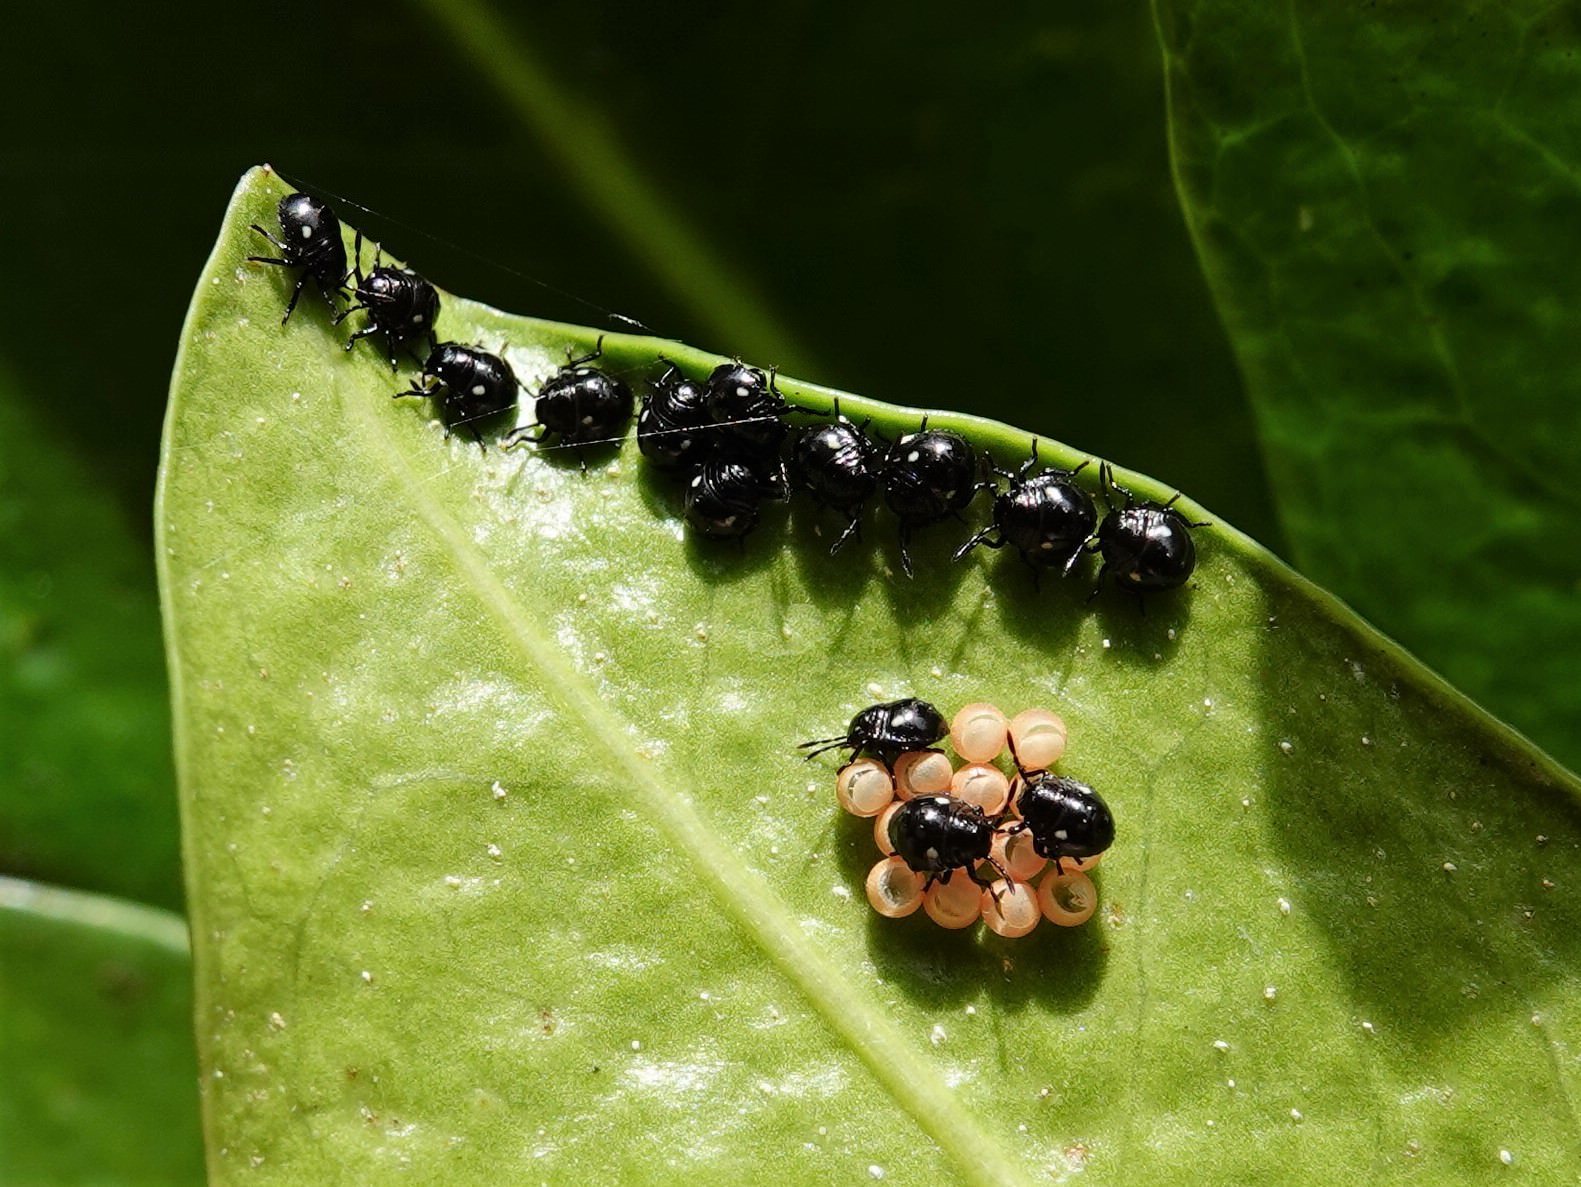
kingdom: Animalia
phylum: Arthropoda
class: Insecta
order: Hemiptera
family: Pentatomidae
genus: Glaucias
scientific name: Glaucias amyota
